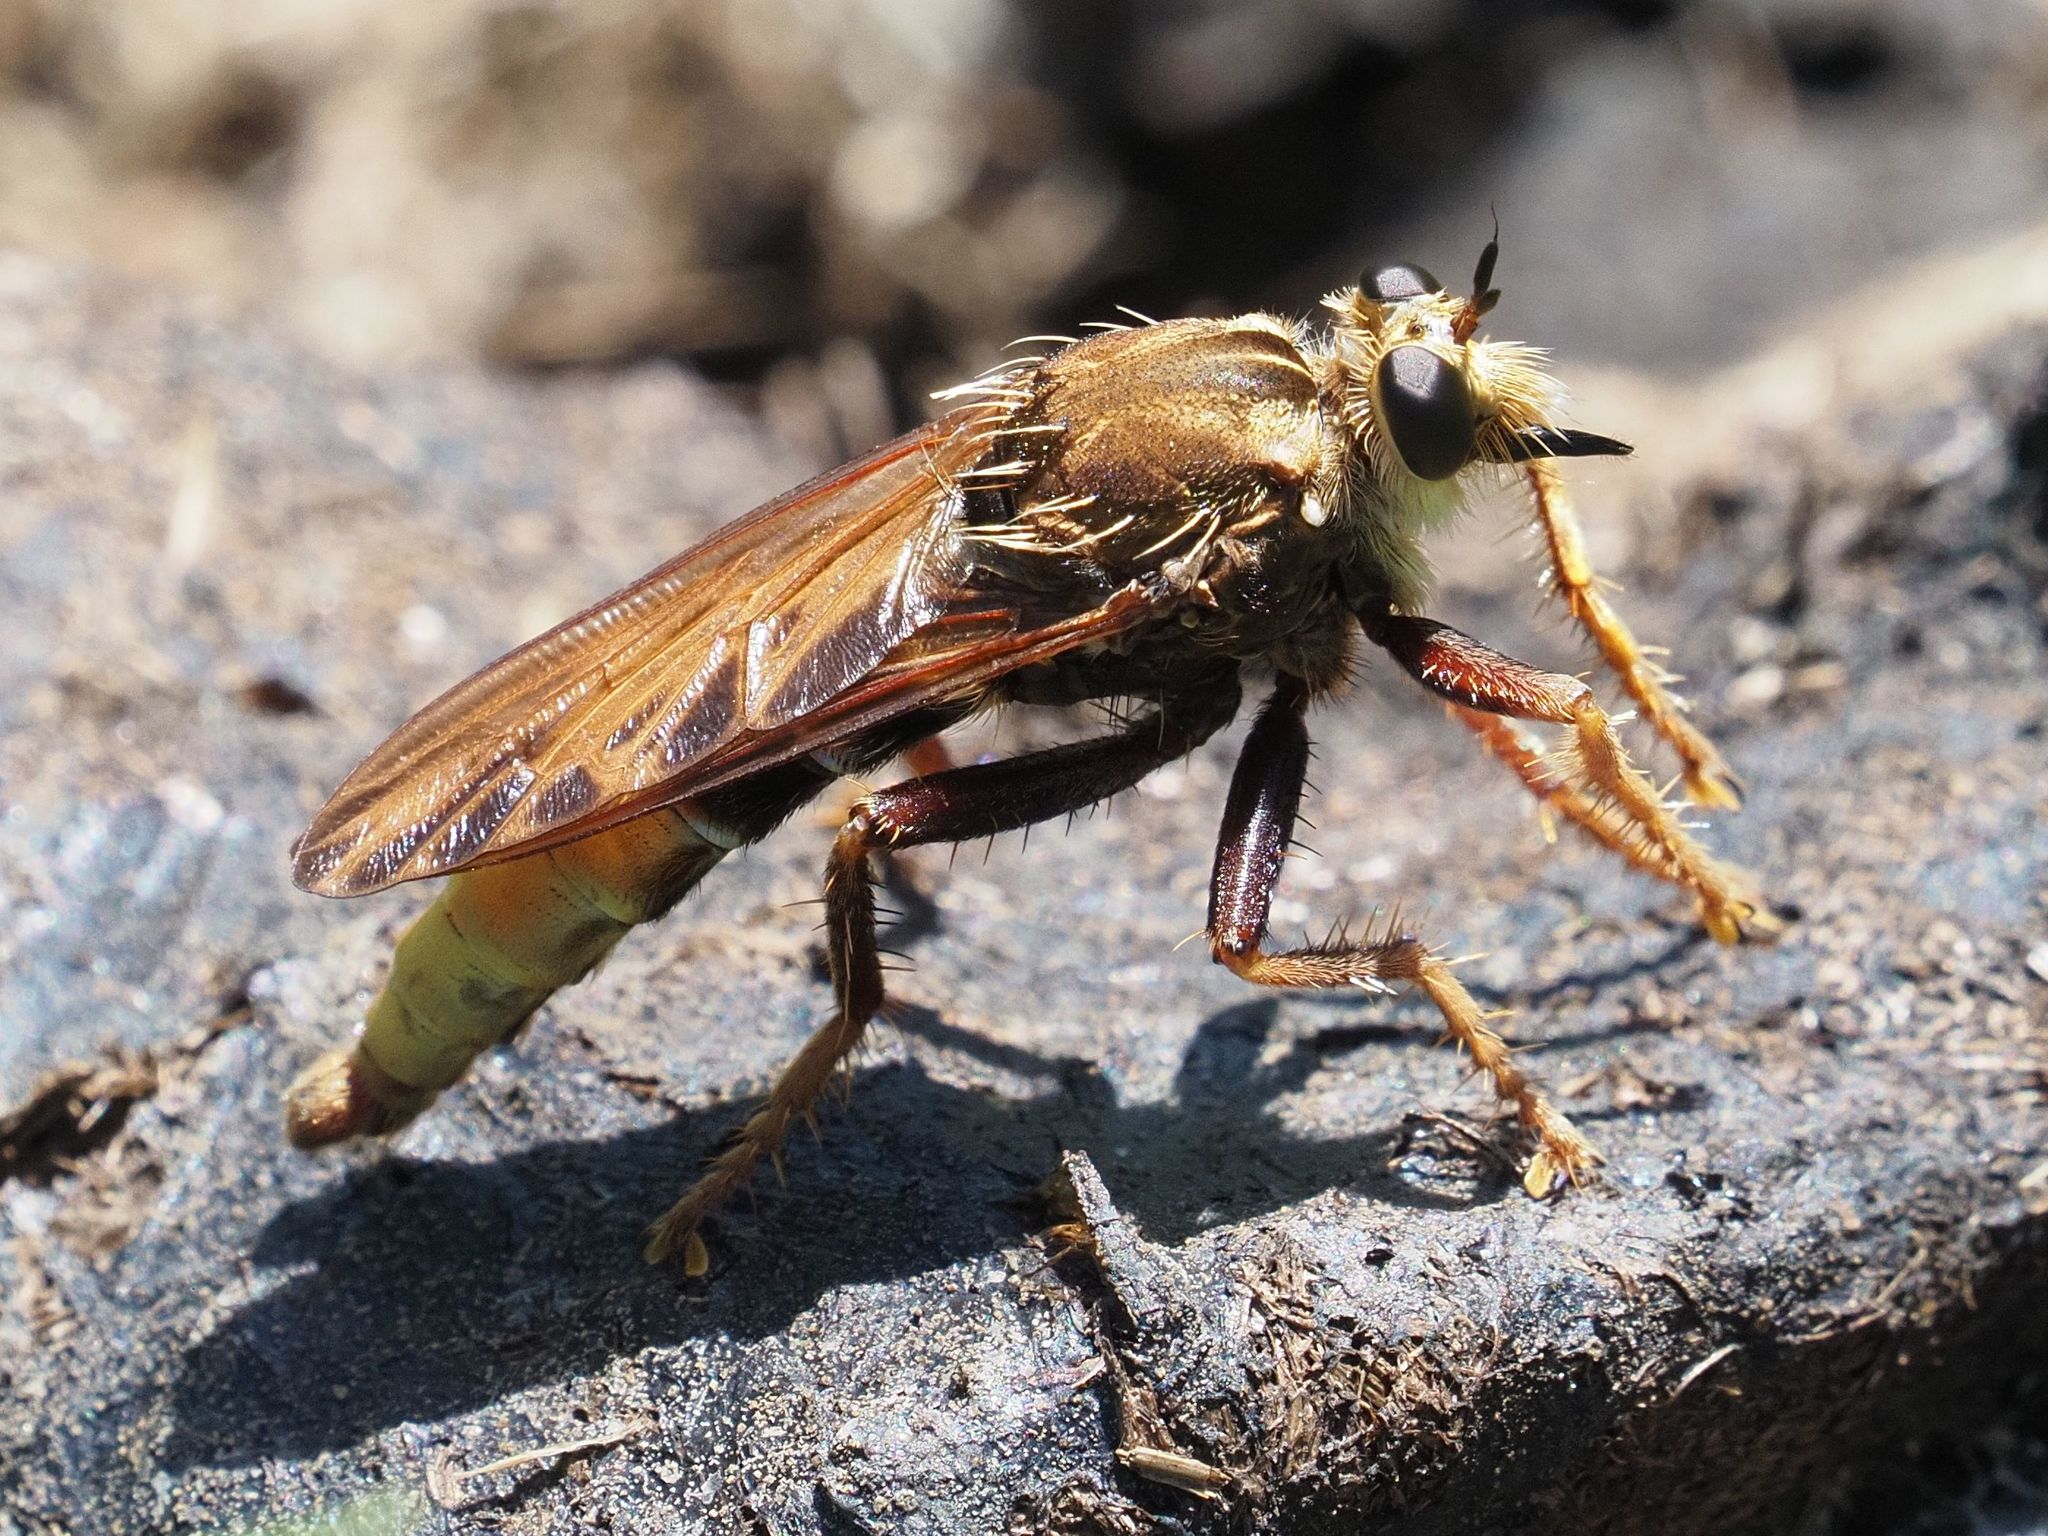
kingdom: Animalia
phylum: Arthropoda
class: Insecta
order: Diptera
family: Asilidae
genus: Asilus
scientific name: Asilus crabroniformis
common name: Hornet robberfly
